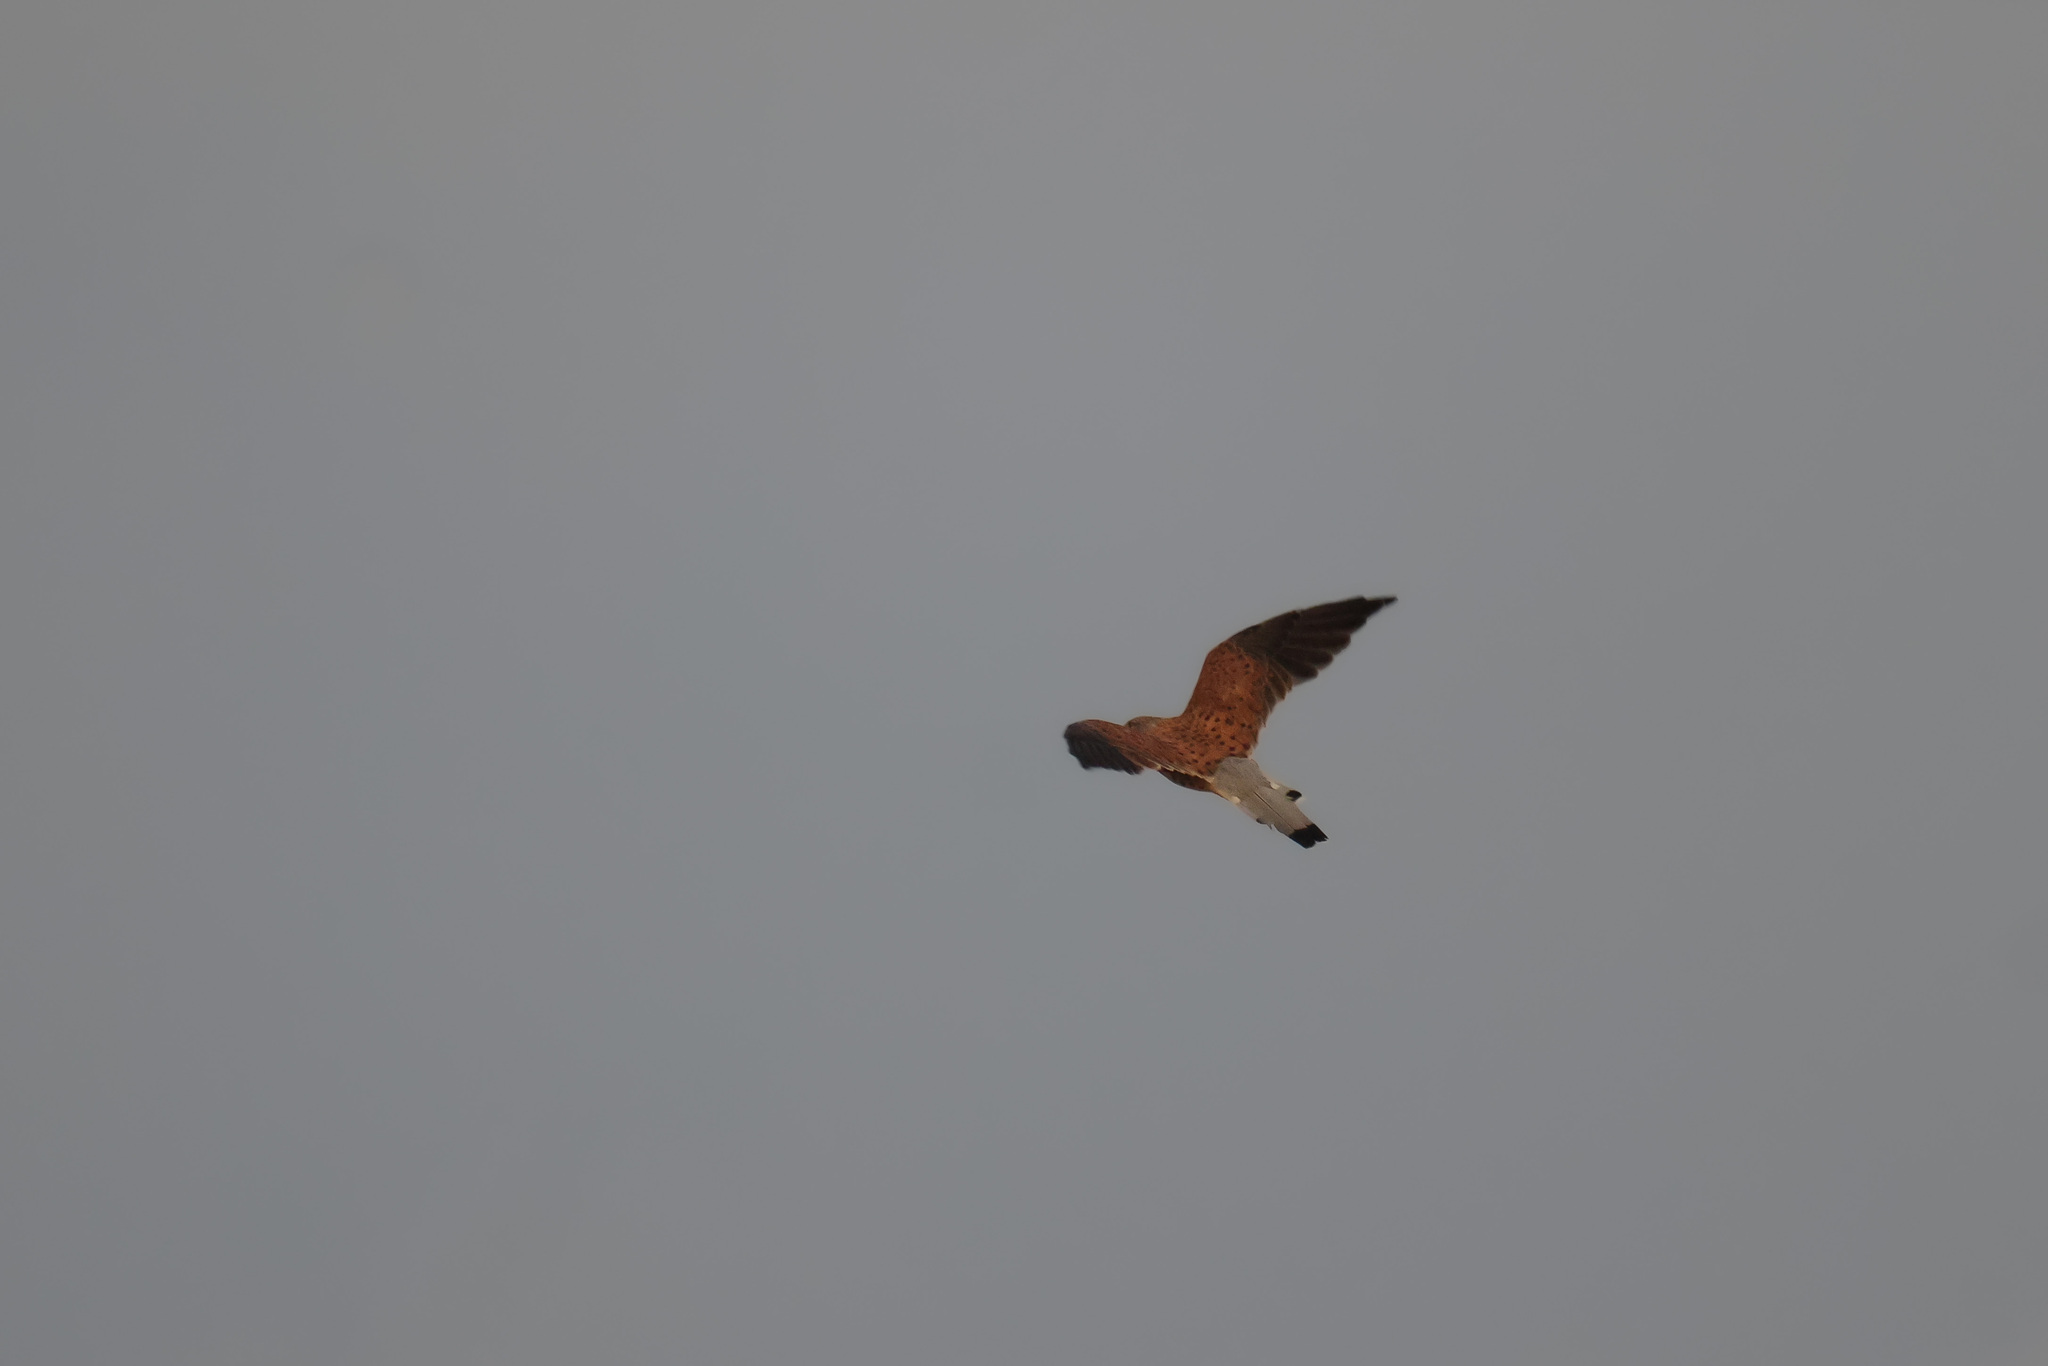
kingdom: Animalia
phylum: Chordata
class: Aves
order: Falconiformes
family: Falconidae
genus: Falco
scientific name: Falco tinnunculus
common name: Common kestrel
